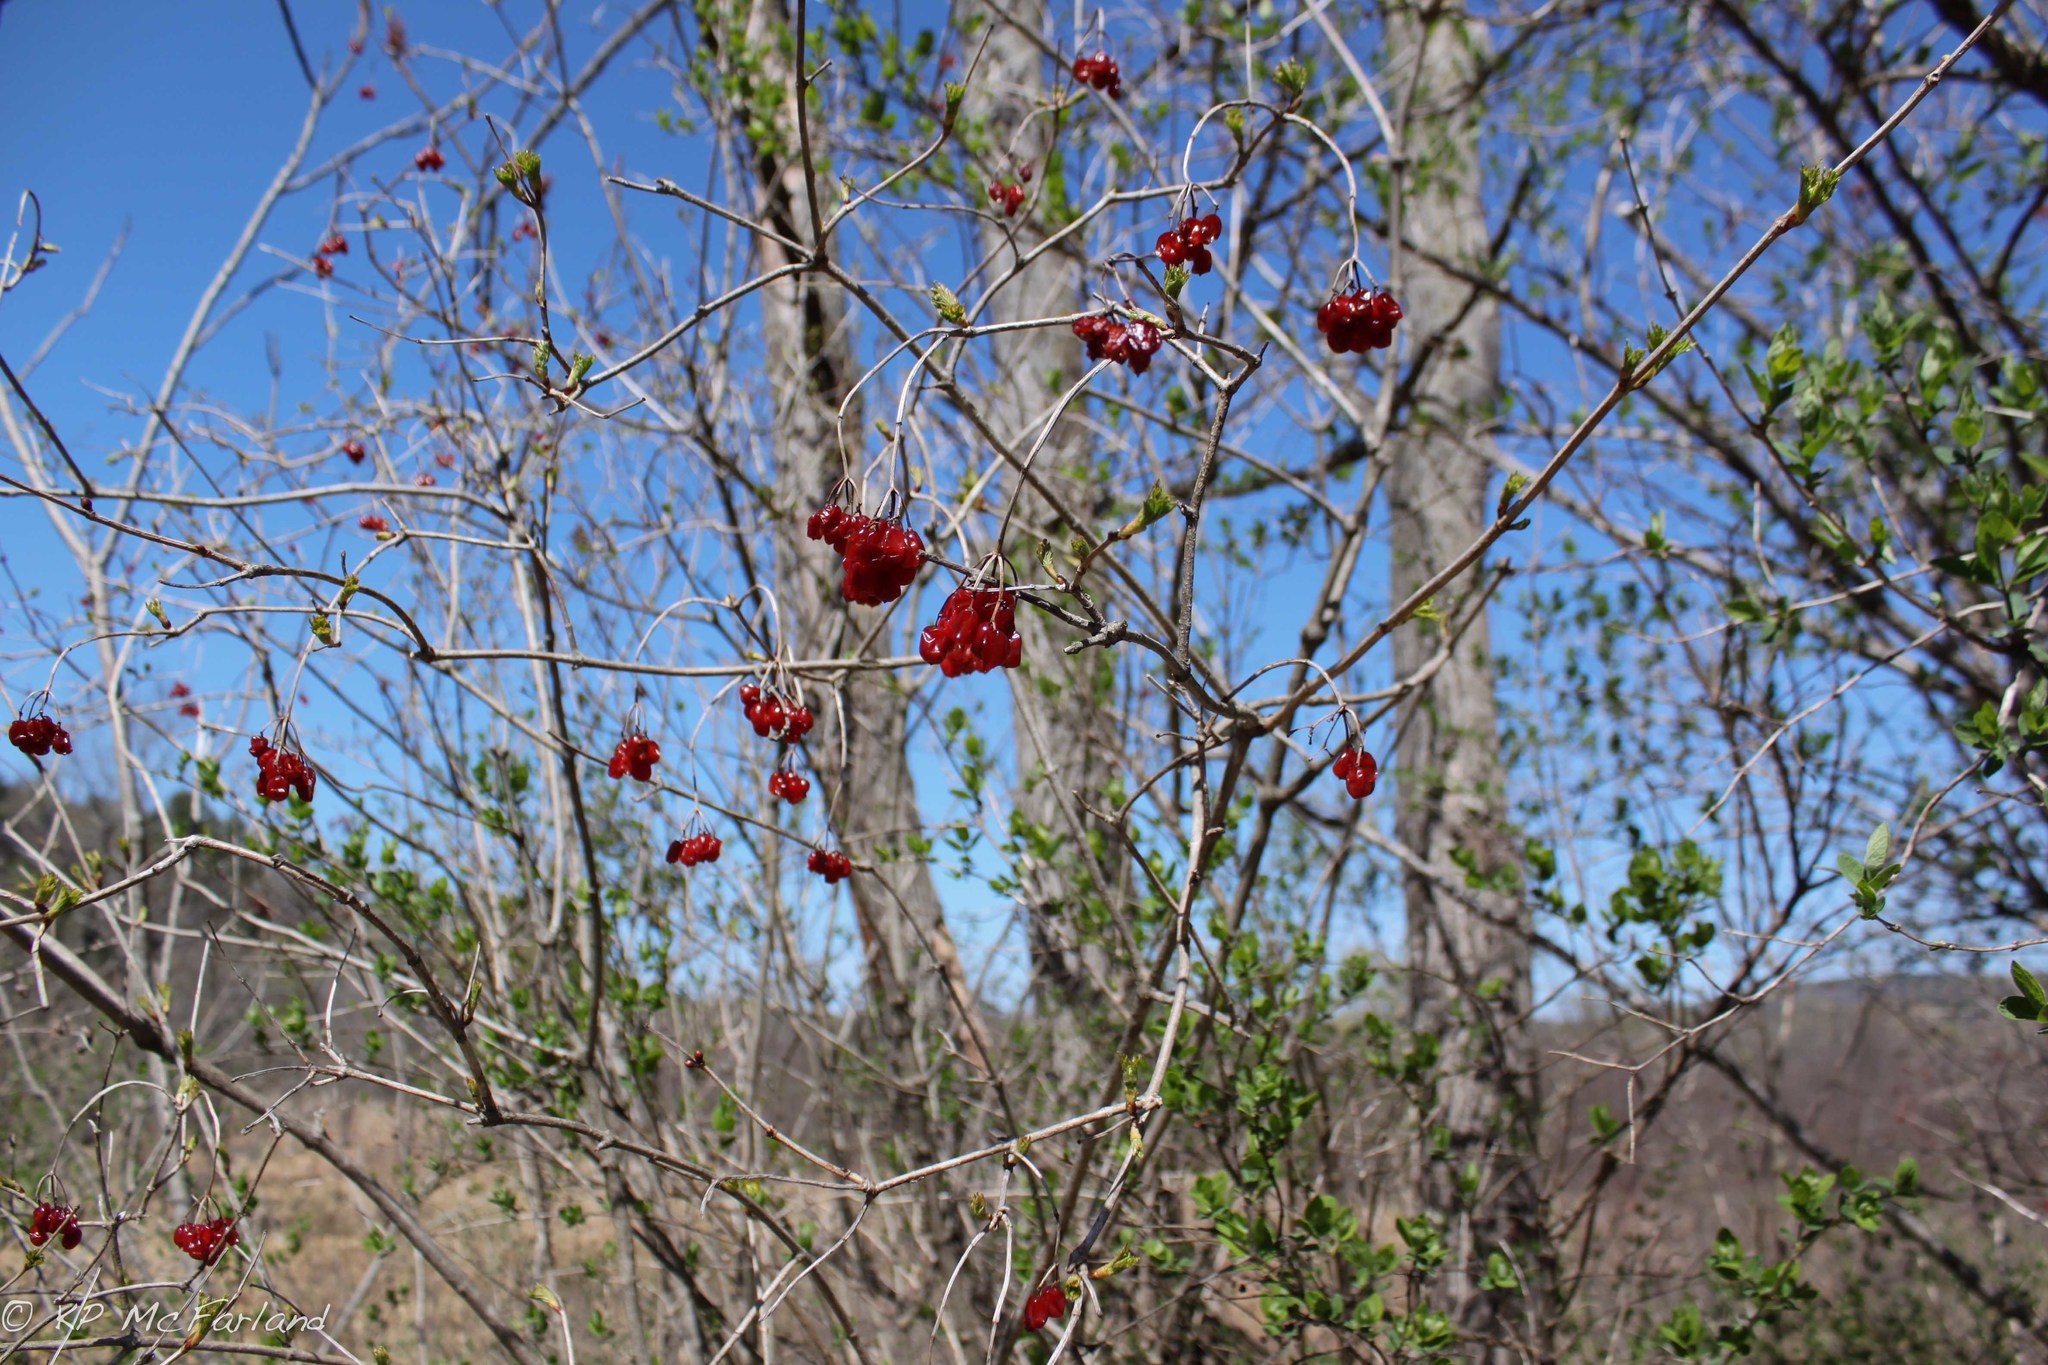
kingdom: Plantae
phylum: Tracheophyta
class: Magnoliopsida
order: Dipsacales
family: Viburnaceae
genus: Viburnum
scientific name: Viburnum opulus
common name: Guelder-rose
